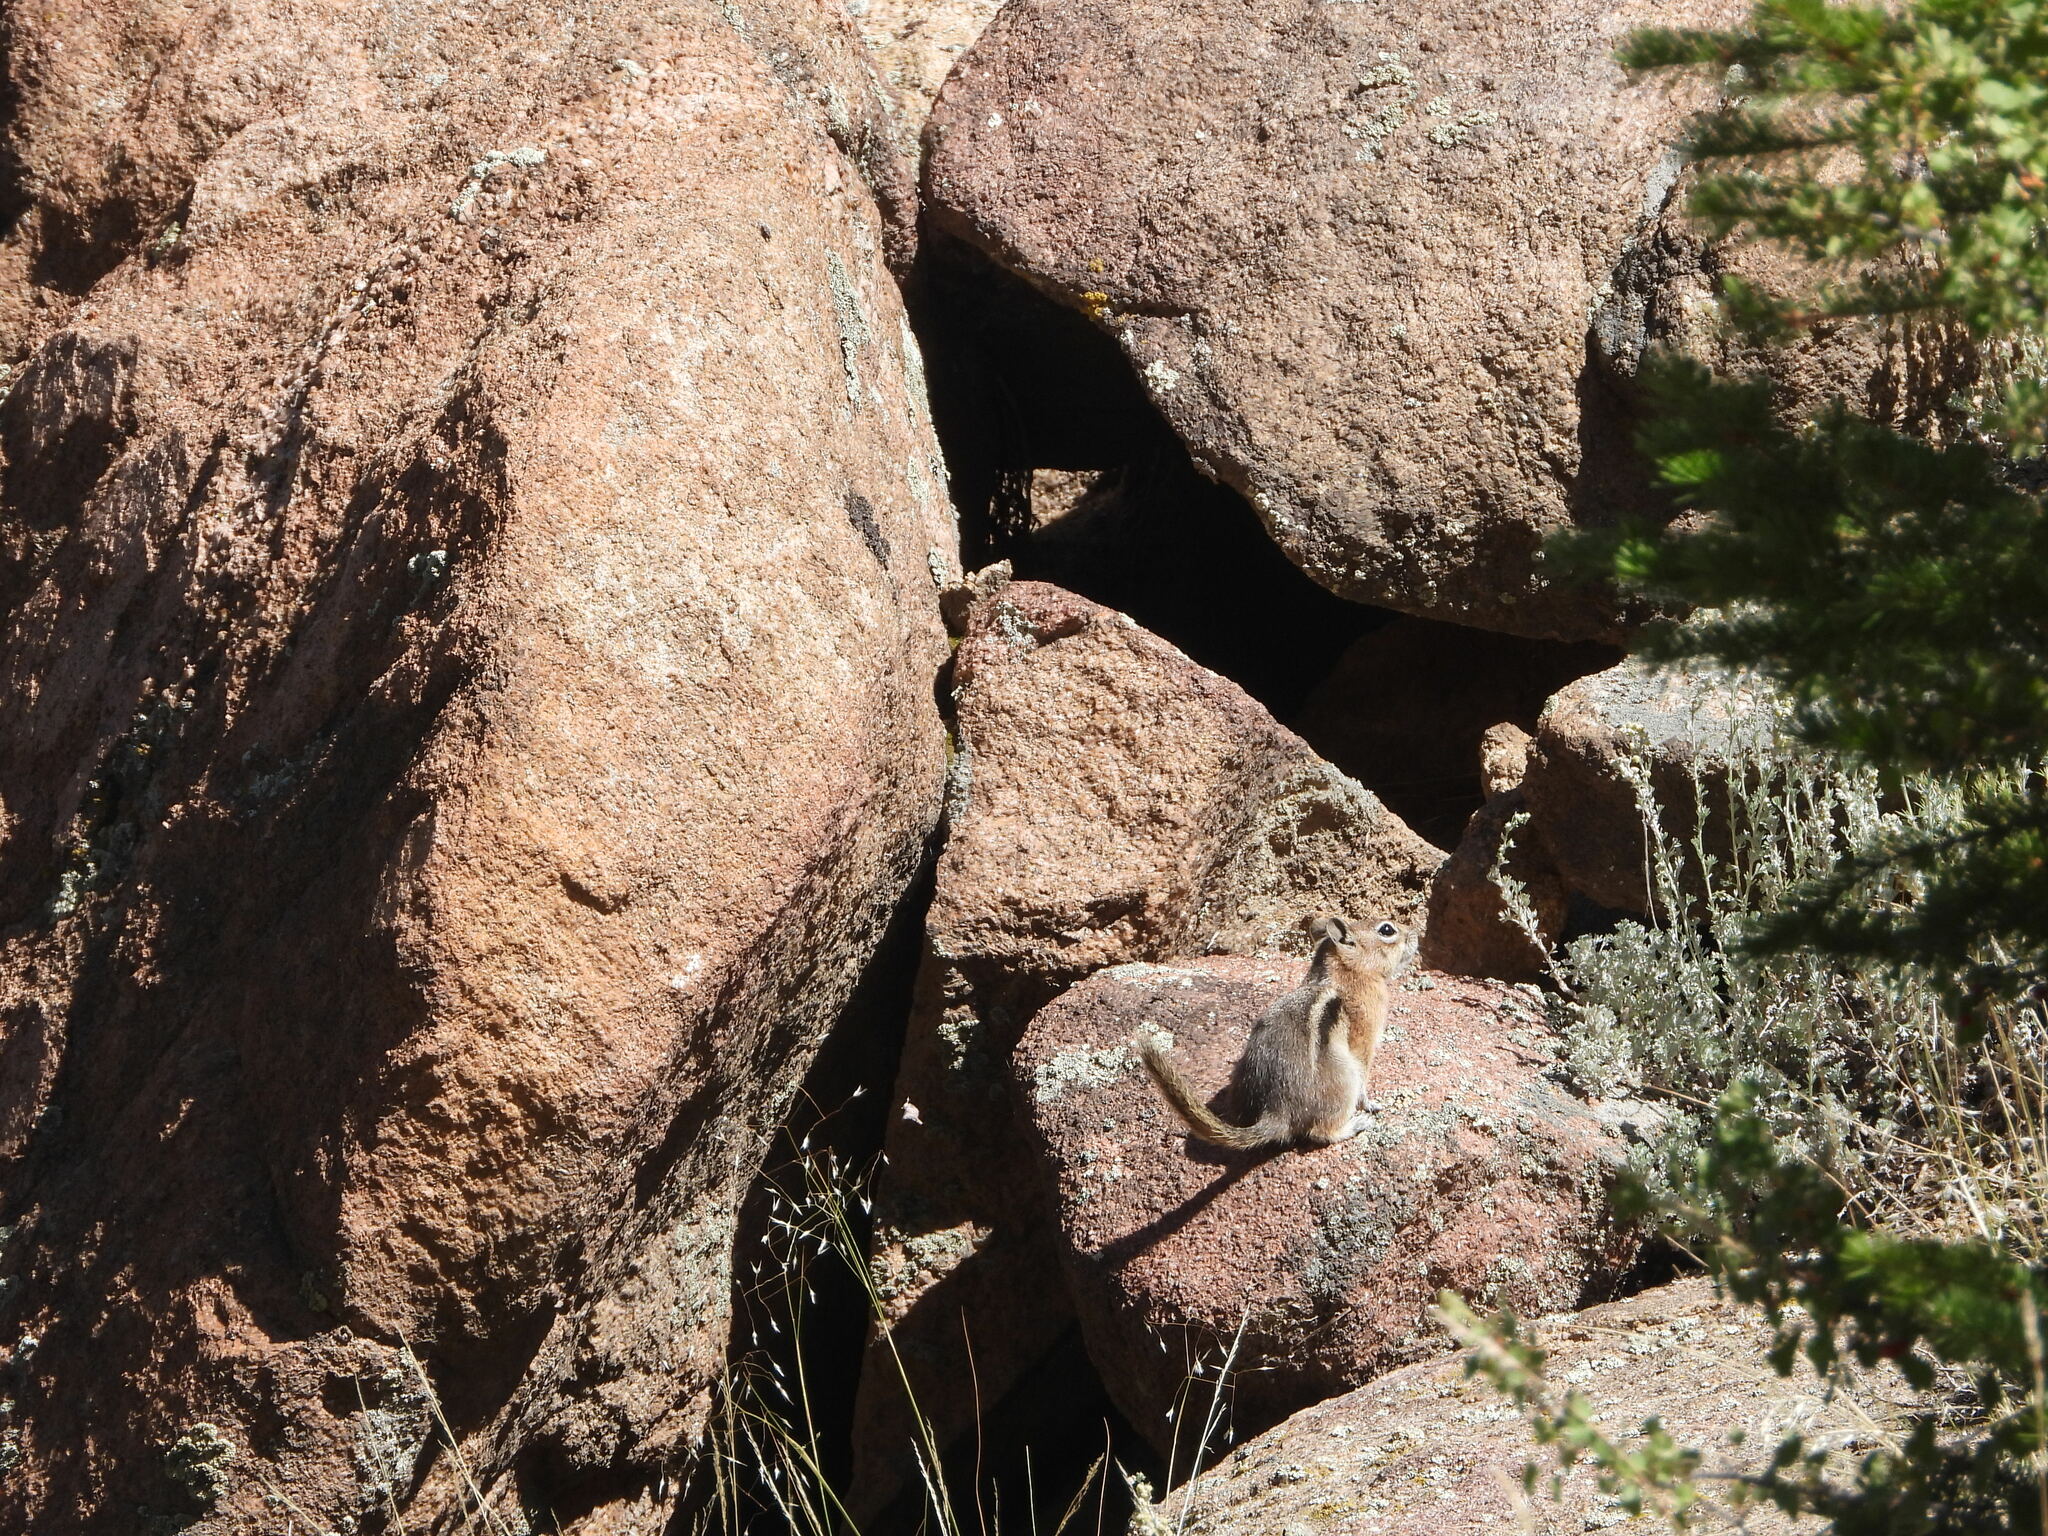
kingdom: Animalia
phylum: Chordata
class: Mammalia
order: Rodentia
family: Sciuridae
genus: Callospermophilus
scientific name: Callospermophilus lateralis
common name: Golden-mantled ground squirrel
